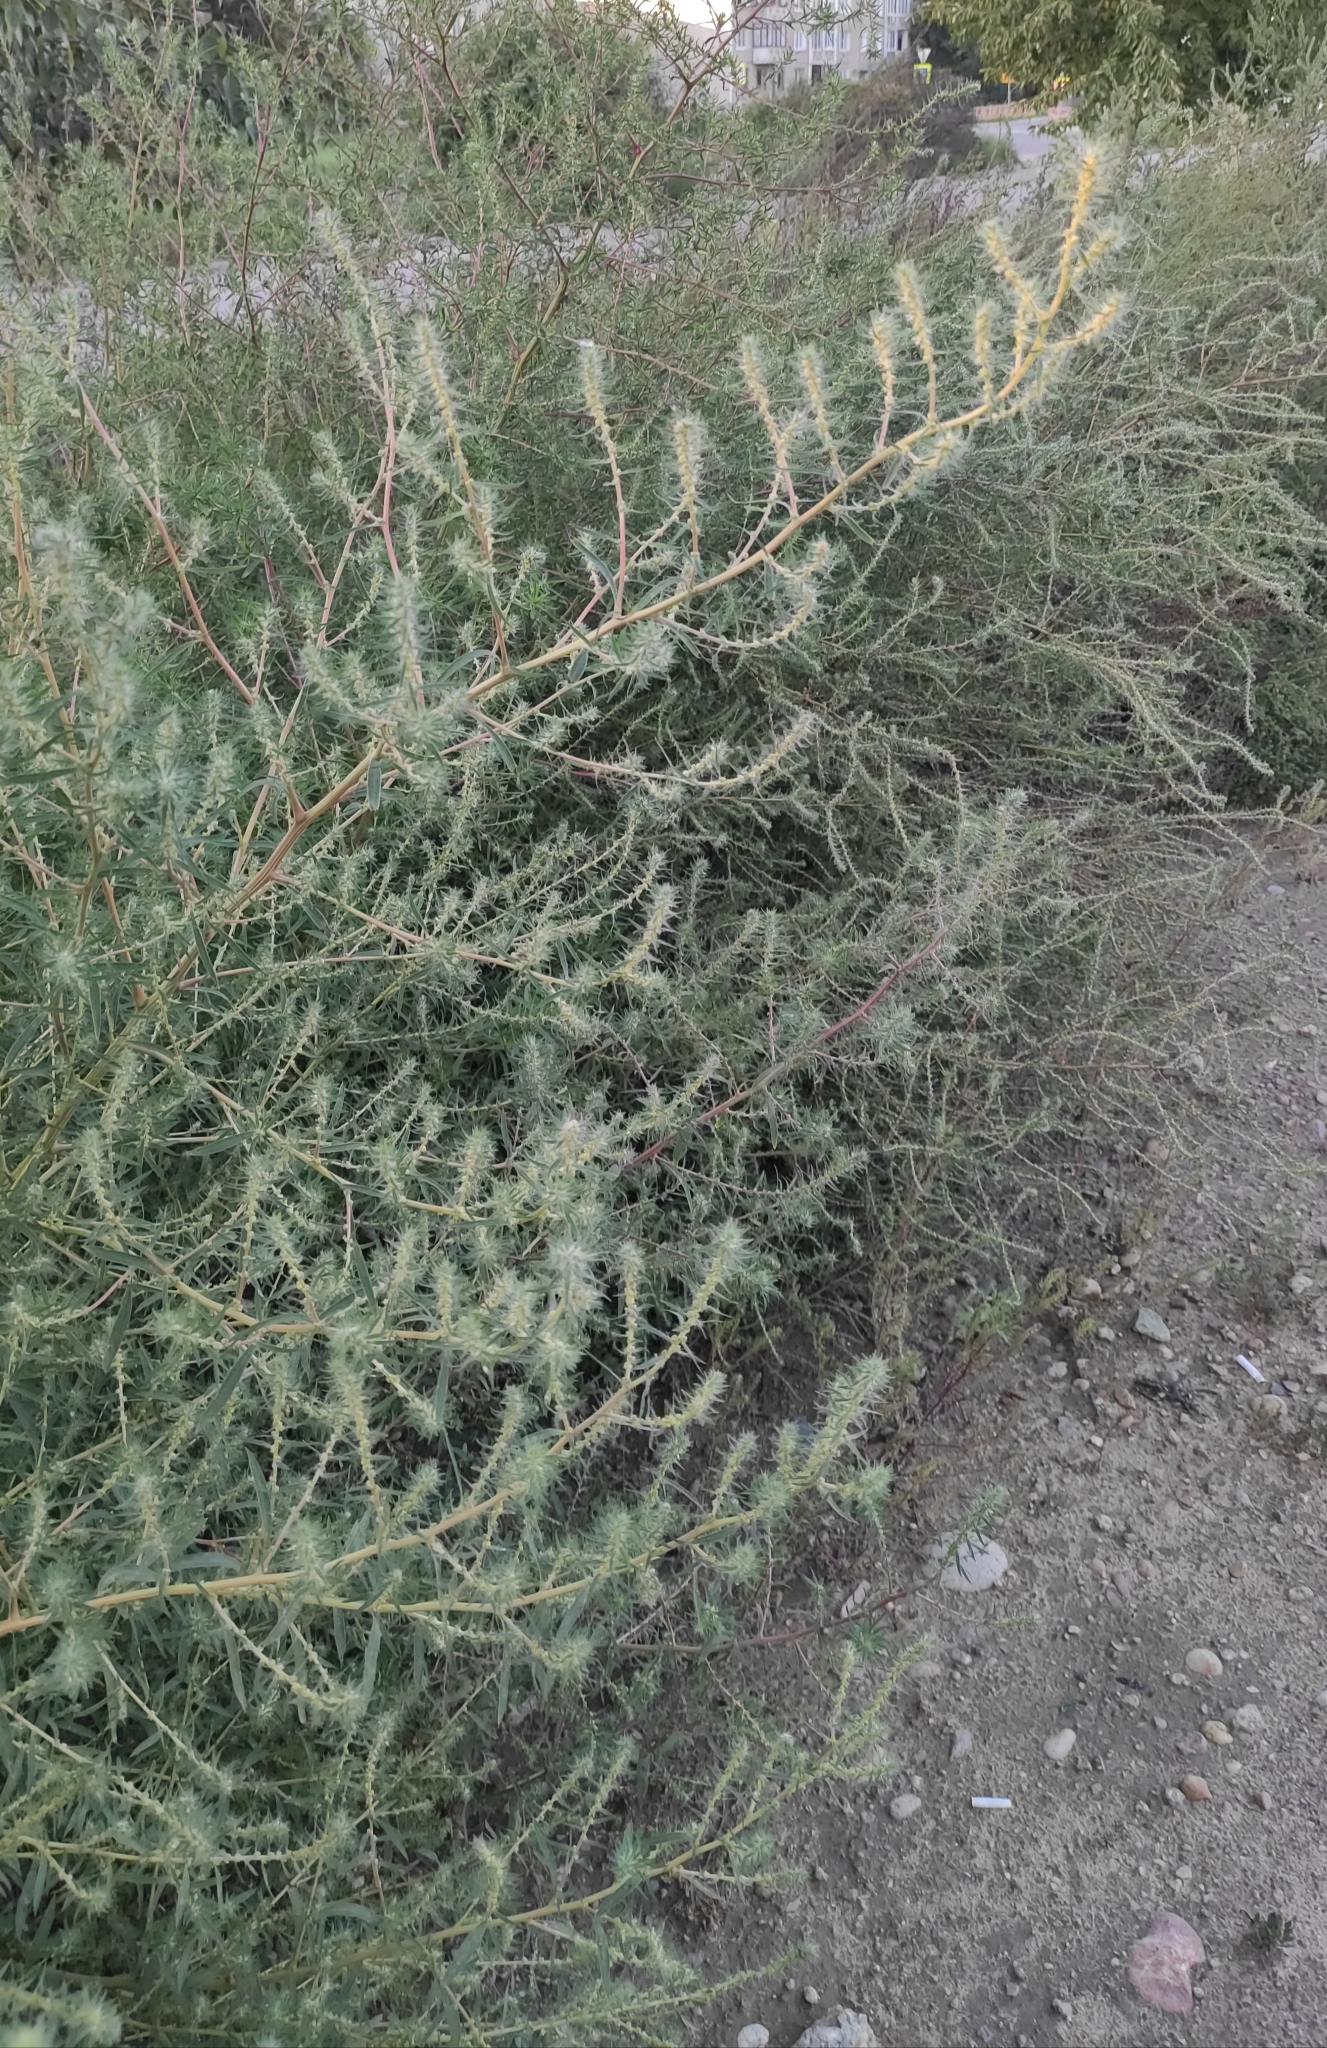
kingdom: Plantae
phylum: Tracheophyta
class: Magnoliopsida
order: Caryophyllales
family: Amaranthaceae
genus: Bassia
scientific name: Bassia scoparia
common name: Belvedere
